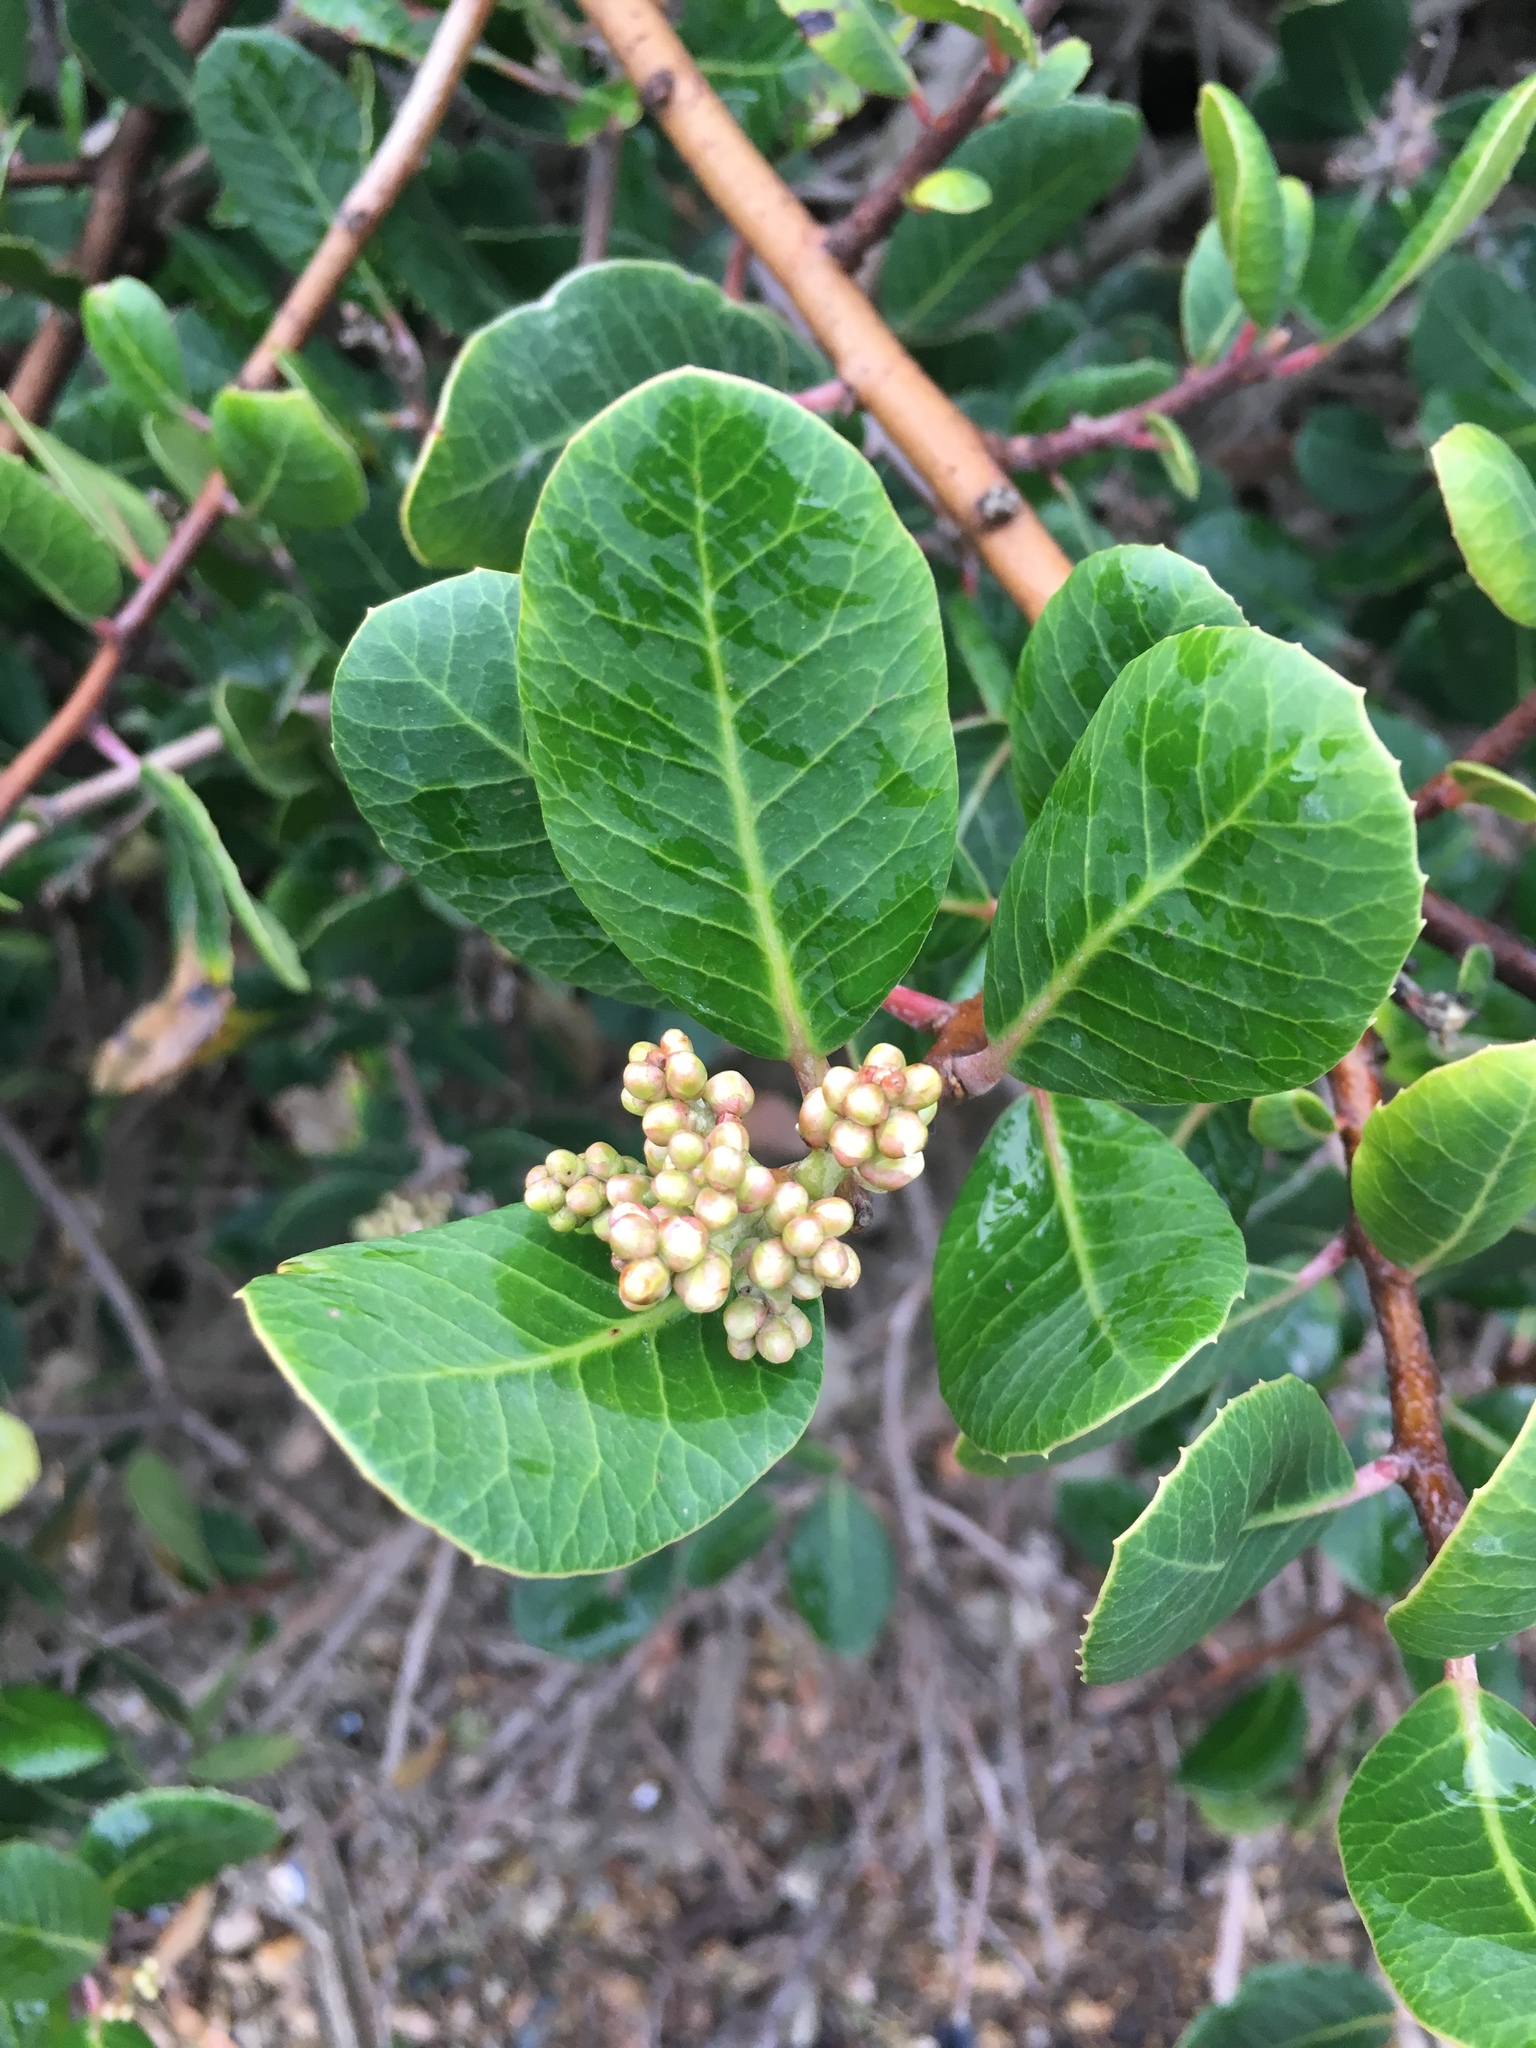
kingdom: Plantae
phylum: Tracheophyta
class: Magnoliopsida
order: Sapindales
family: Anacardiaceae
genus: Rhus
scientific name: Rhus integrifolia
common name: Lemonade sumac
